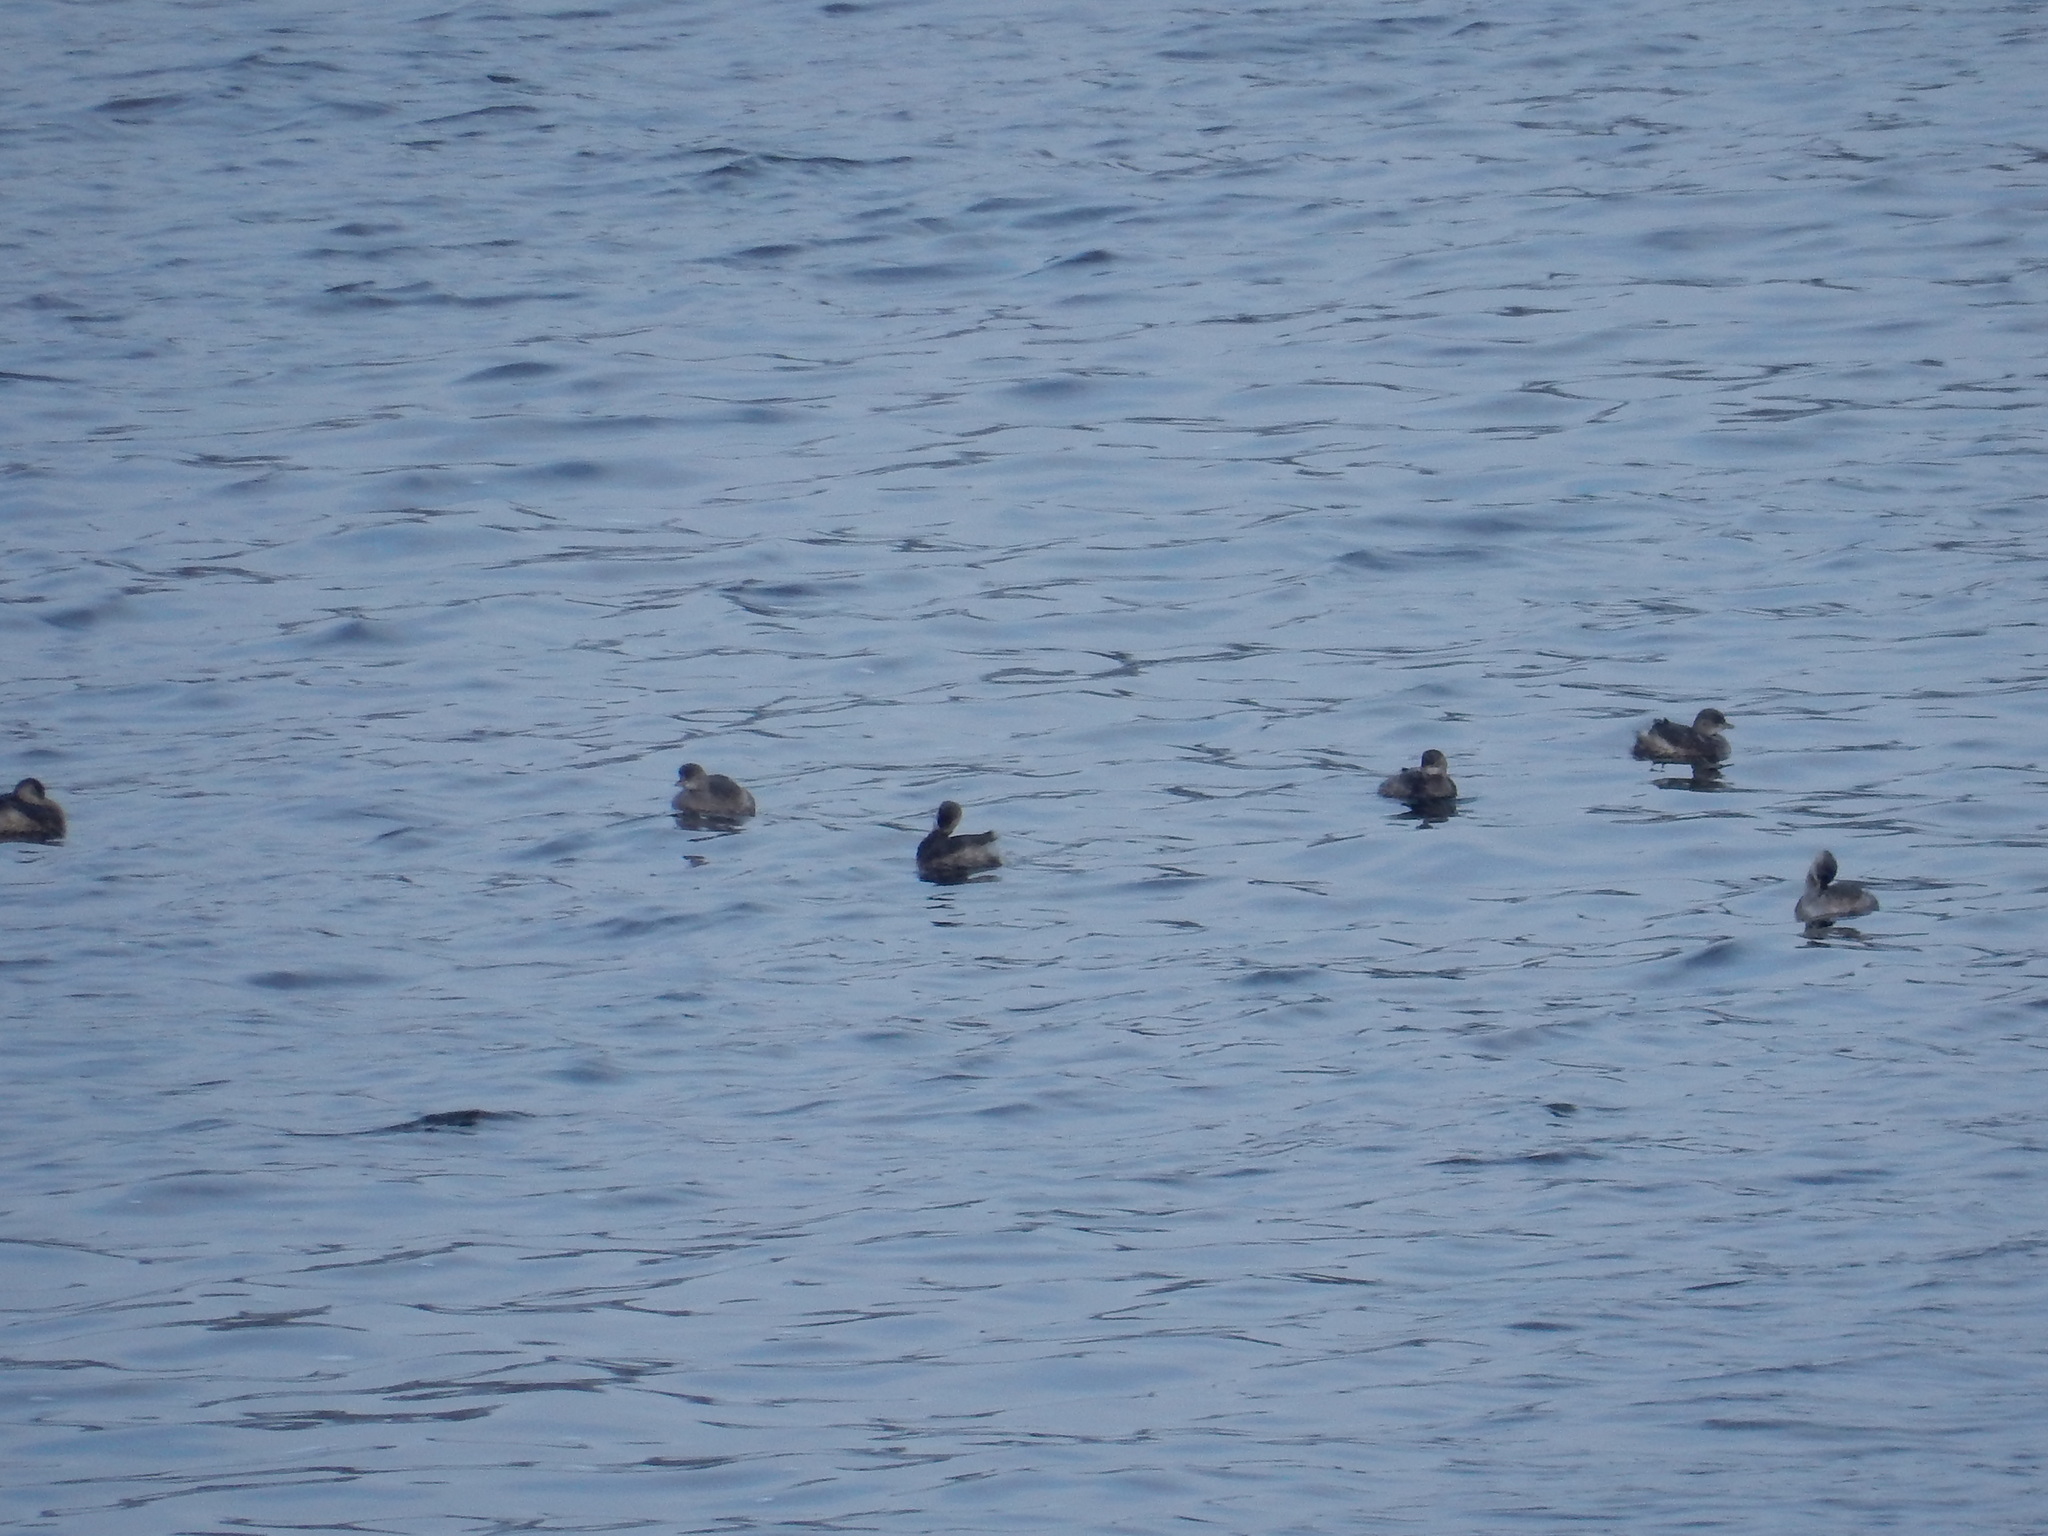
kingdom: Animalia
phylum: Chordata
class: Aves
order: Podicipediformes
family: Podicipedidae
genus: Tachybaptus
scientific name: Tachybaptus ruficollis
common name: Little grebe
